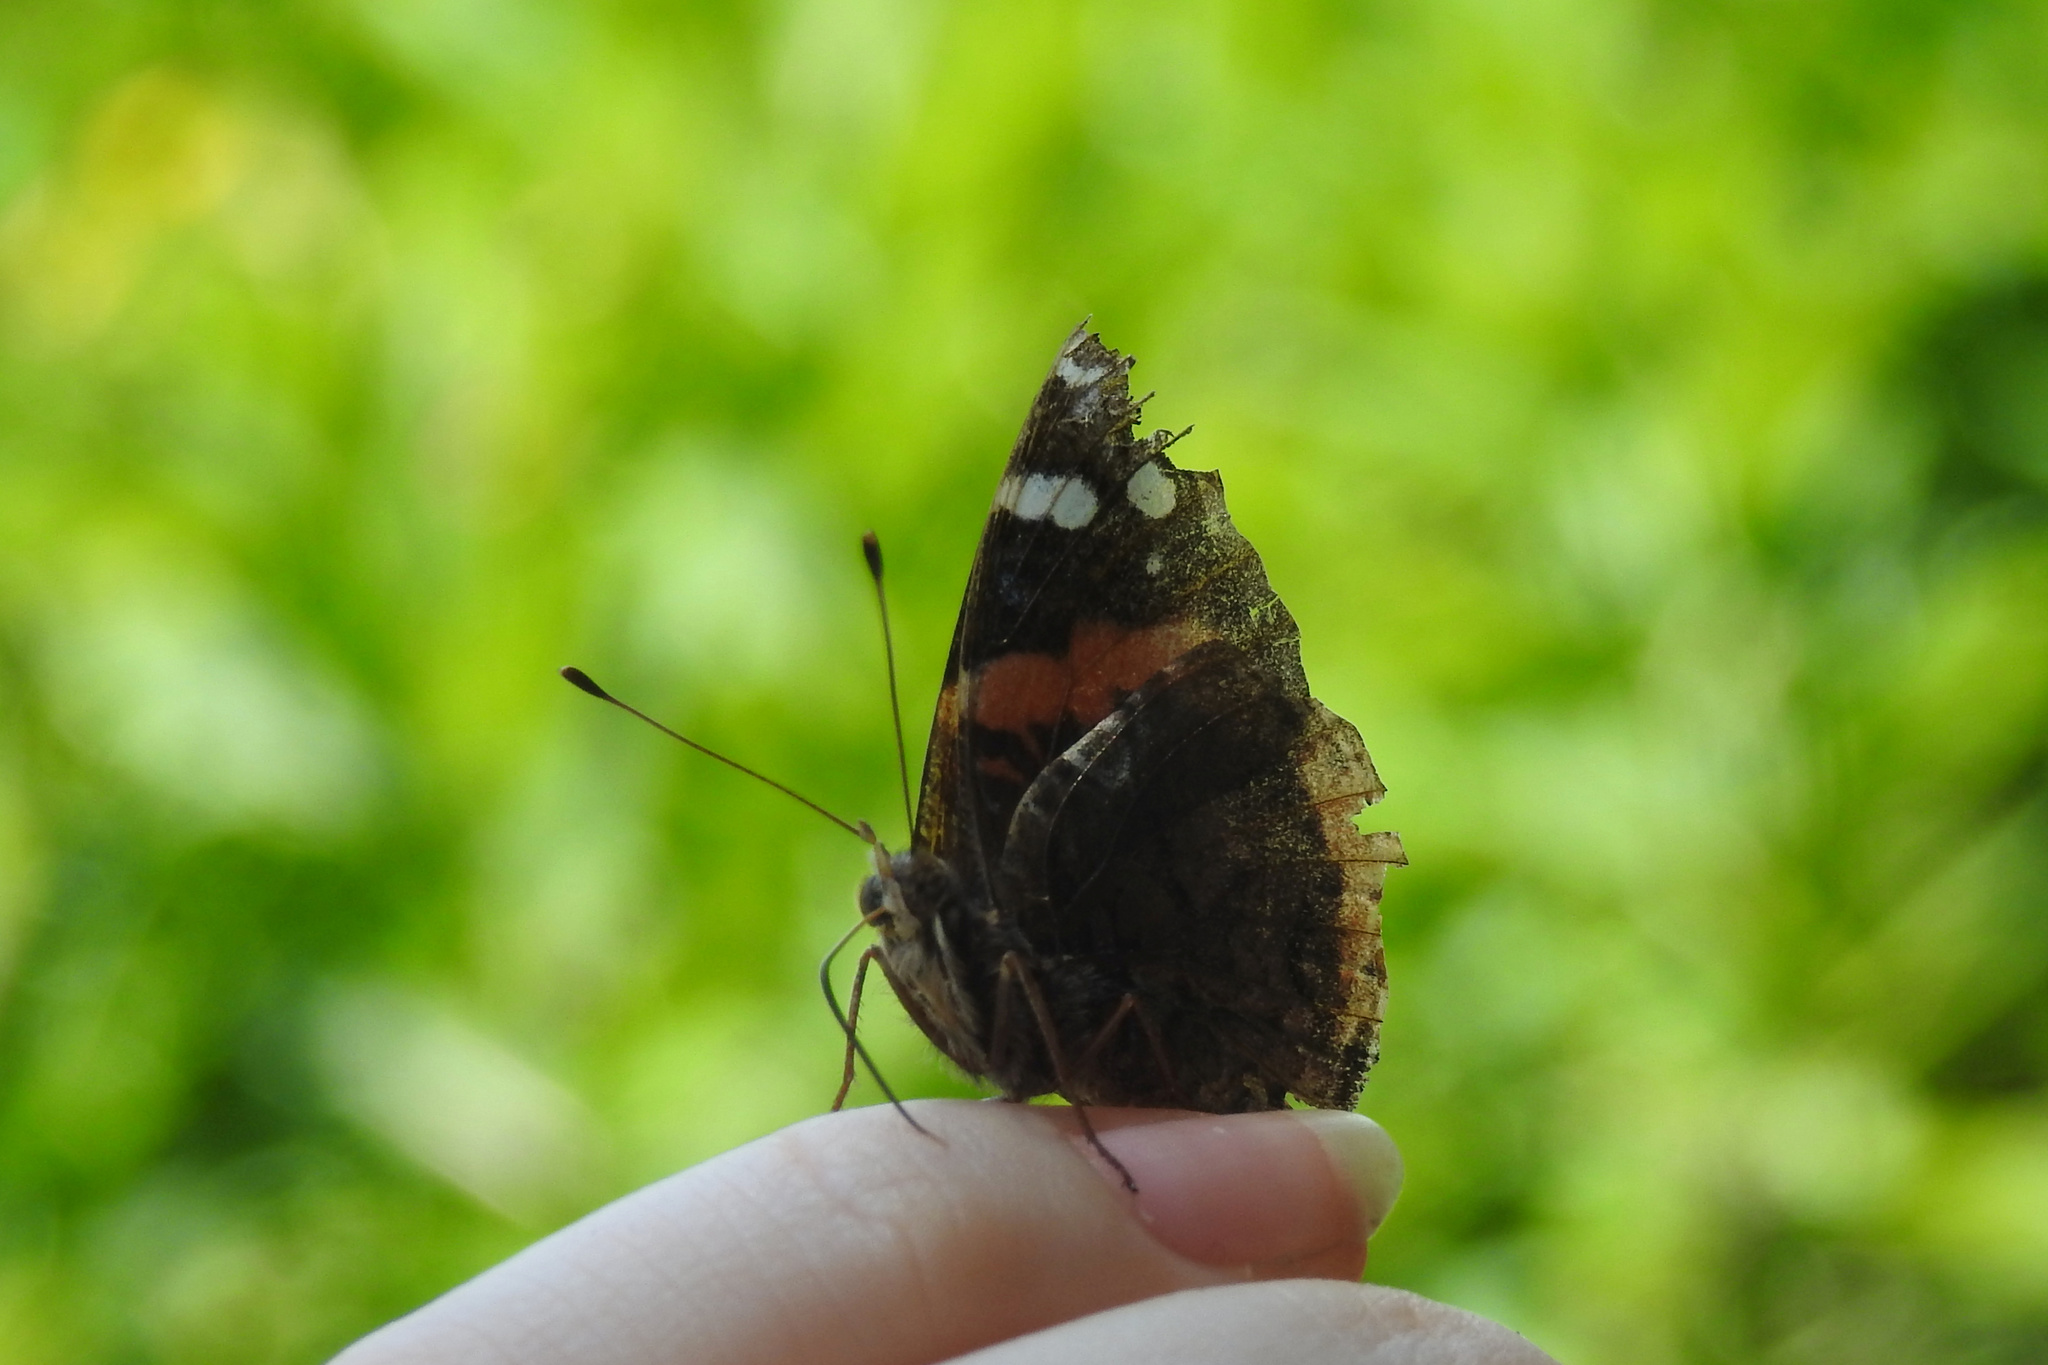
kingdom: Animalia
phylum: Arthropoda
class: Insecta
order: Lepidoptera
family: Nymphalidae
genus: Vanessa
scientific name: Vanessa atalanta
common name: Red admiral
